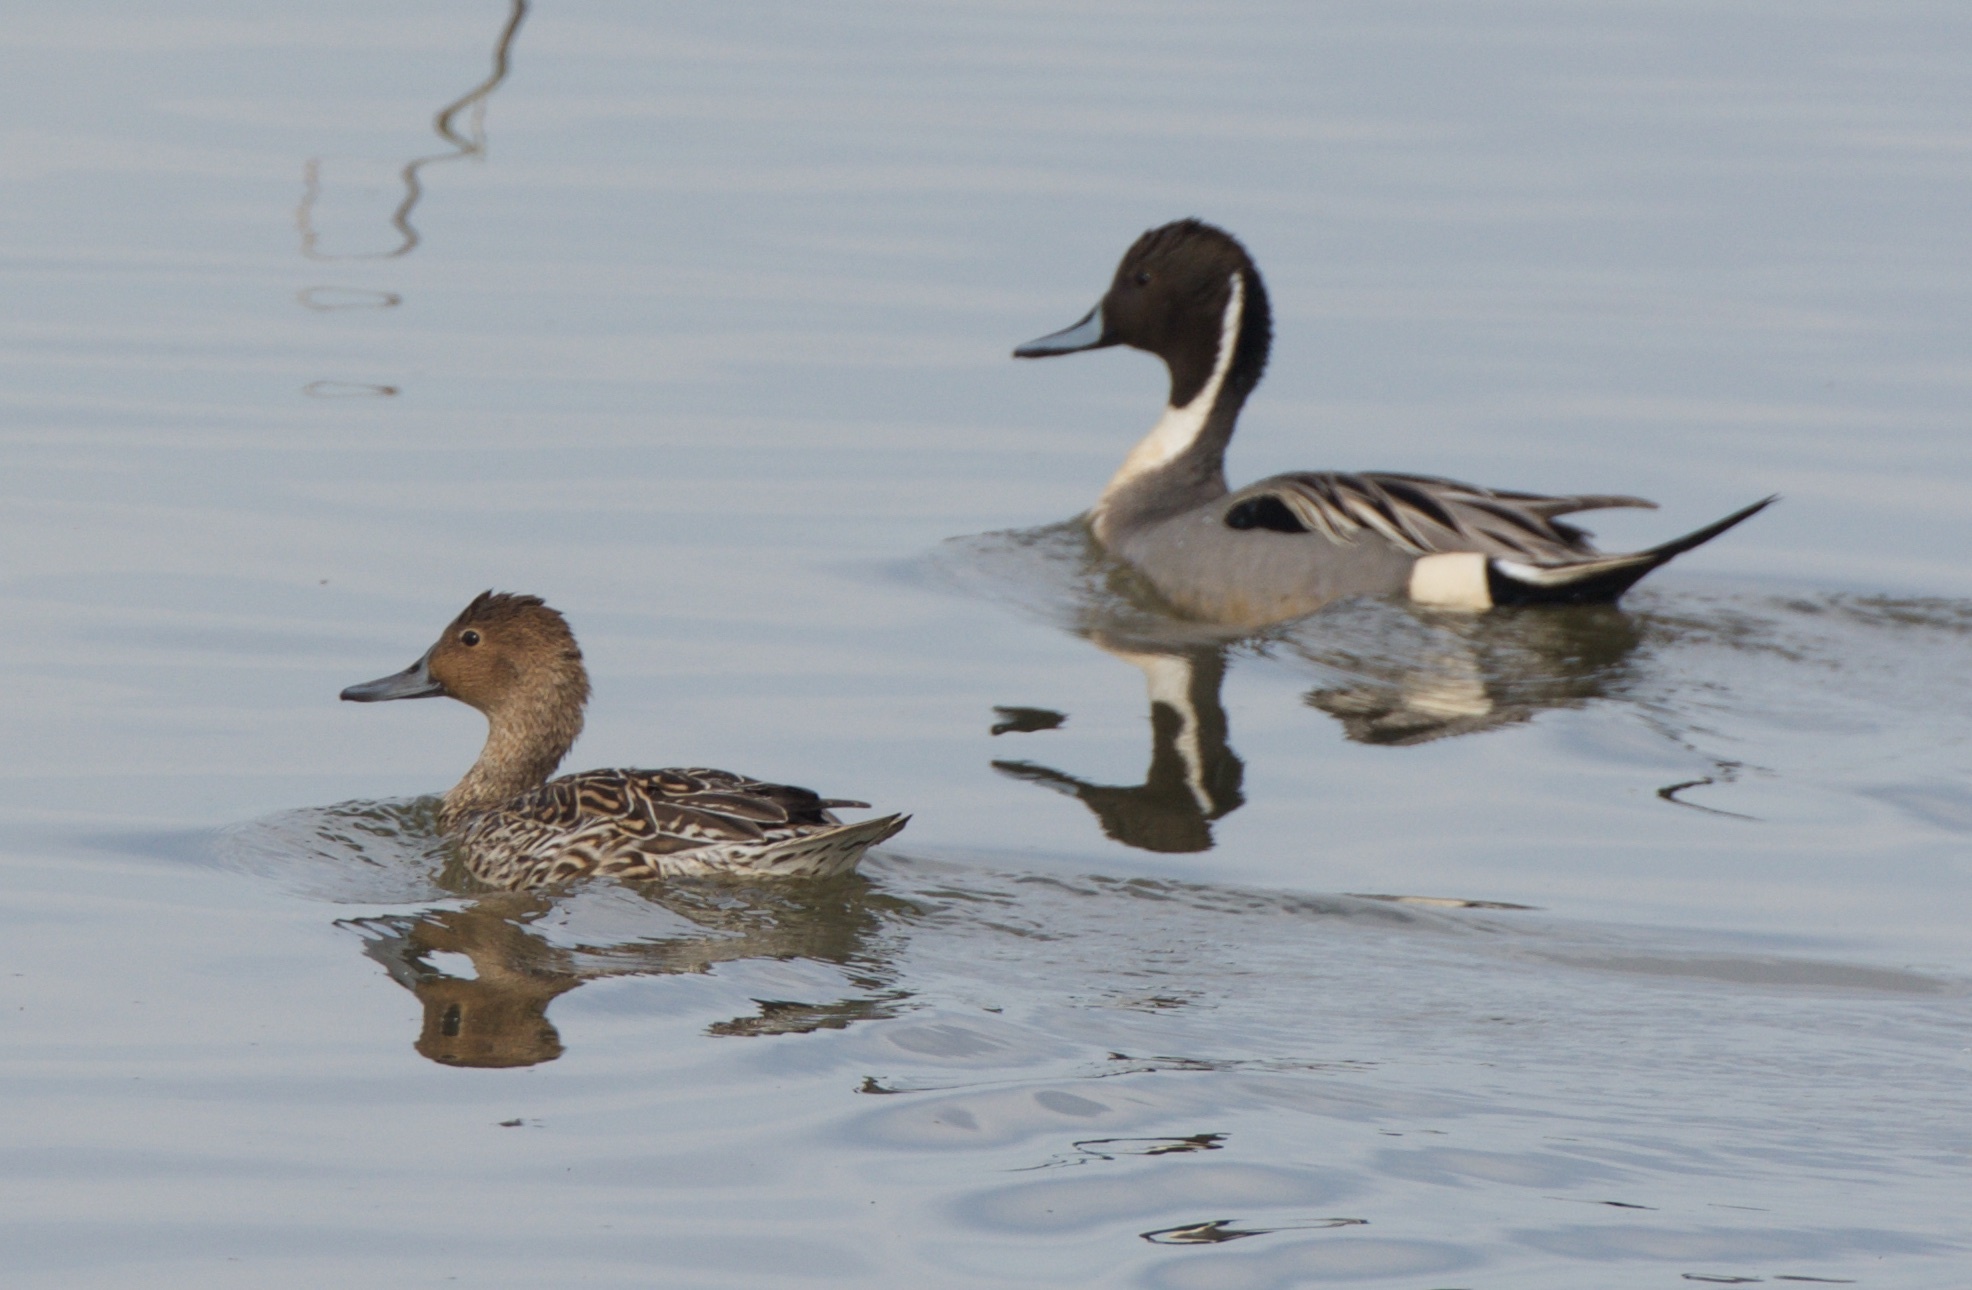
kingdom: Animalia
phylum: Chordata
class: Aves
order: Anseriformes
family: Anatidae
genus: Anas
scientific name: Anas acuta
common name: Northern pintail
